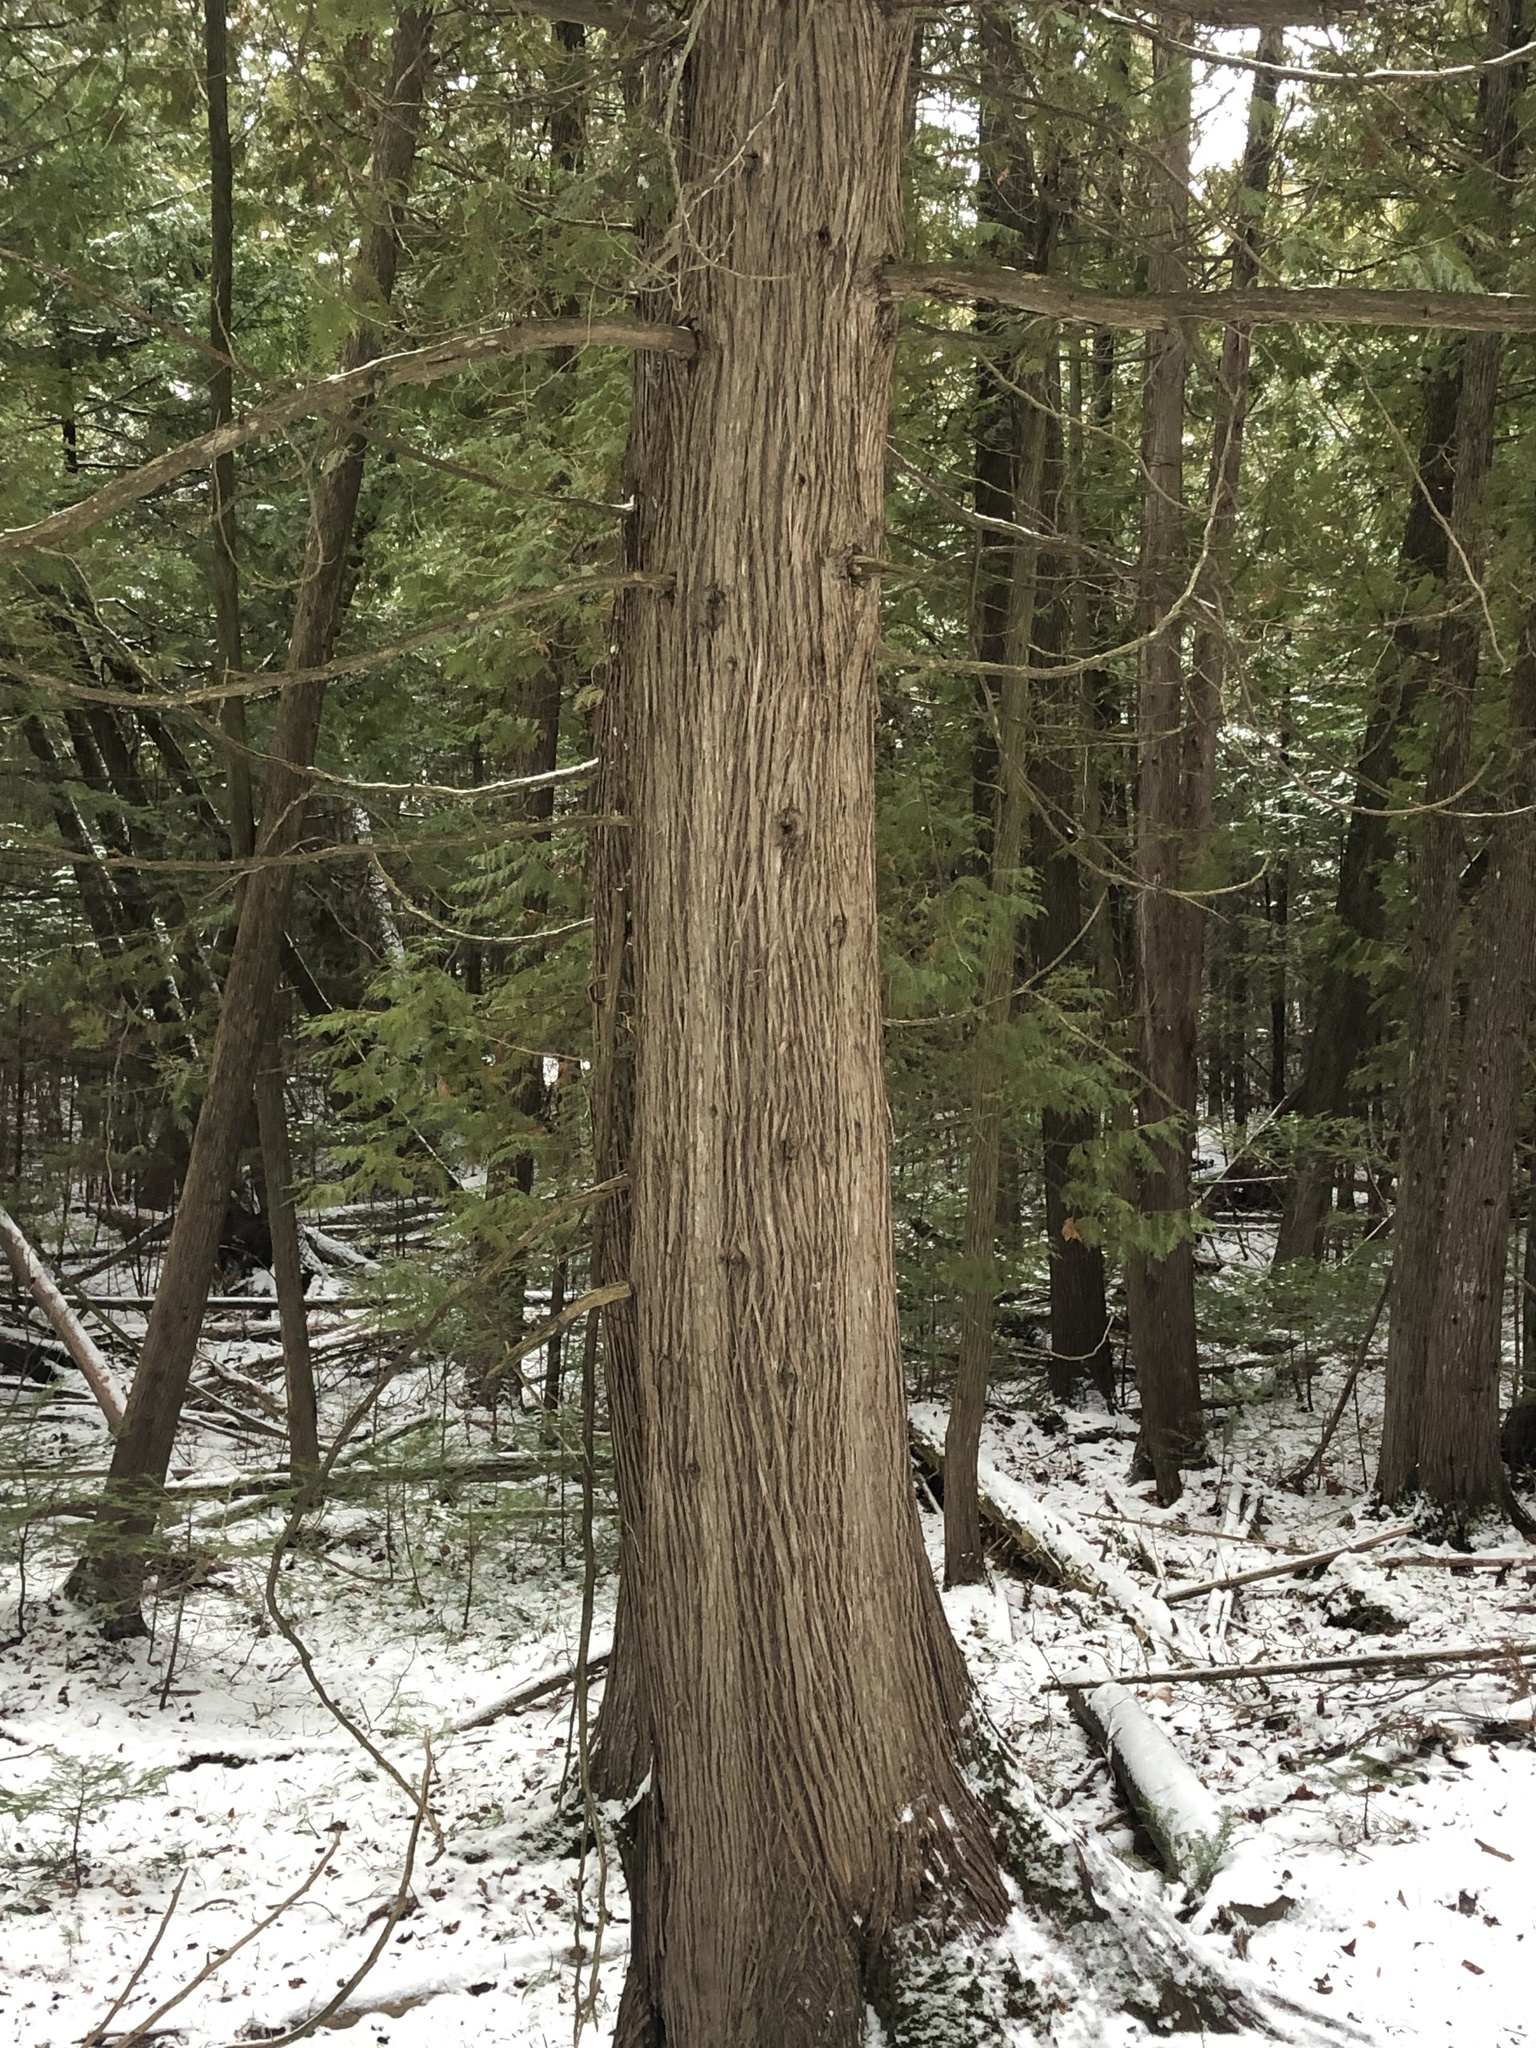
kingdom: Plantae
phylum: Tracheophyta
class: Pinopsida
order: Pinales
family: Cupressaceae
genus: Thuja
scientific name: Thuja occidentalis
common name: Northern white-cedar
